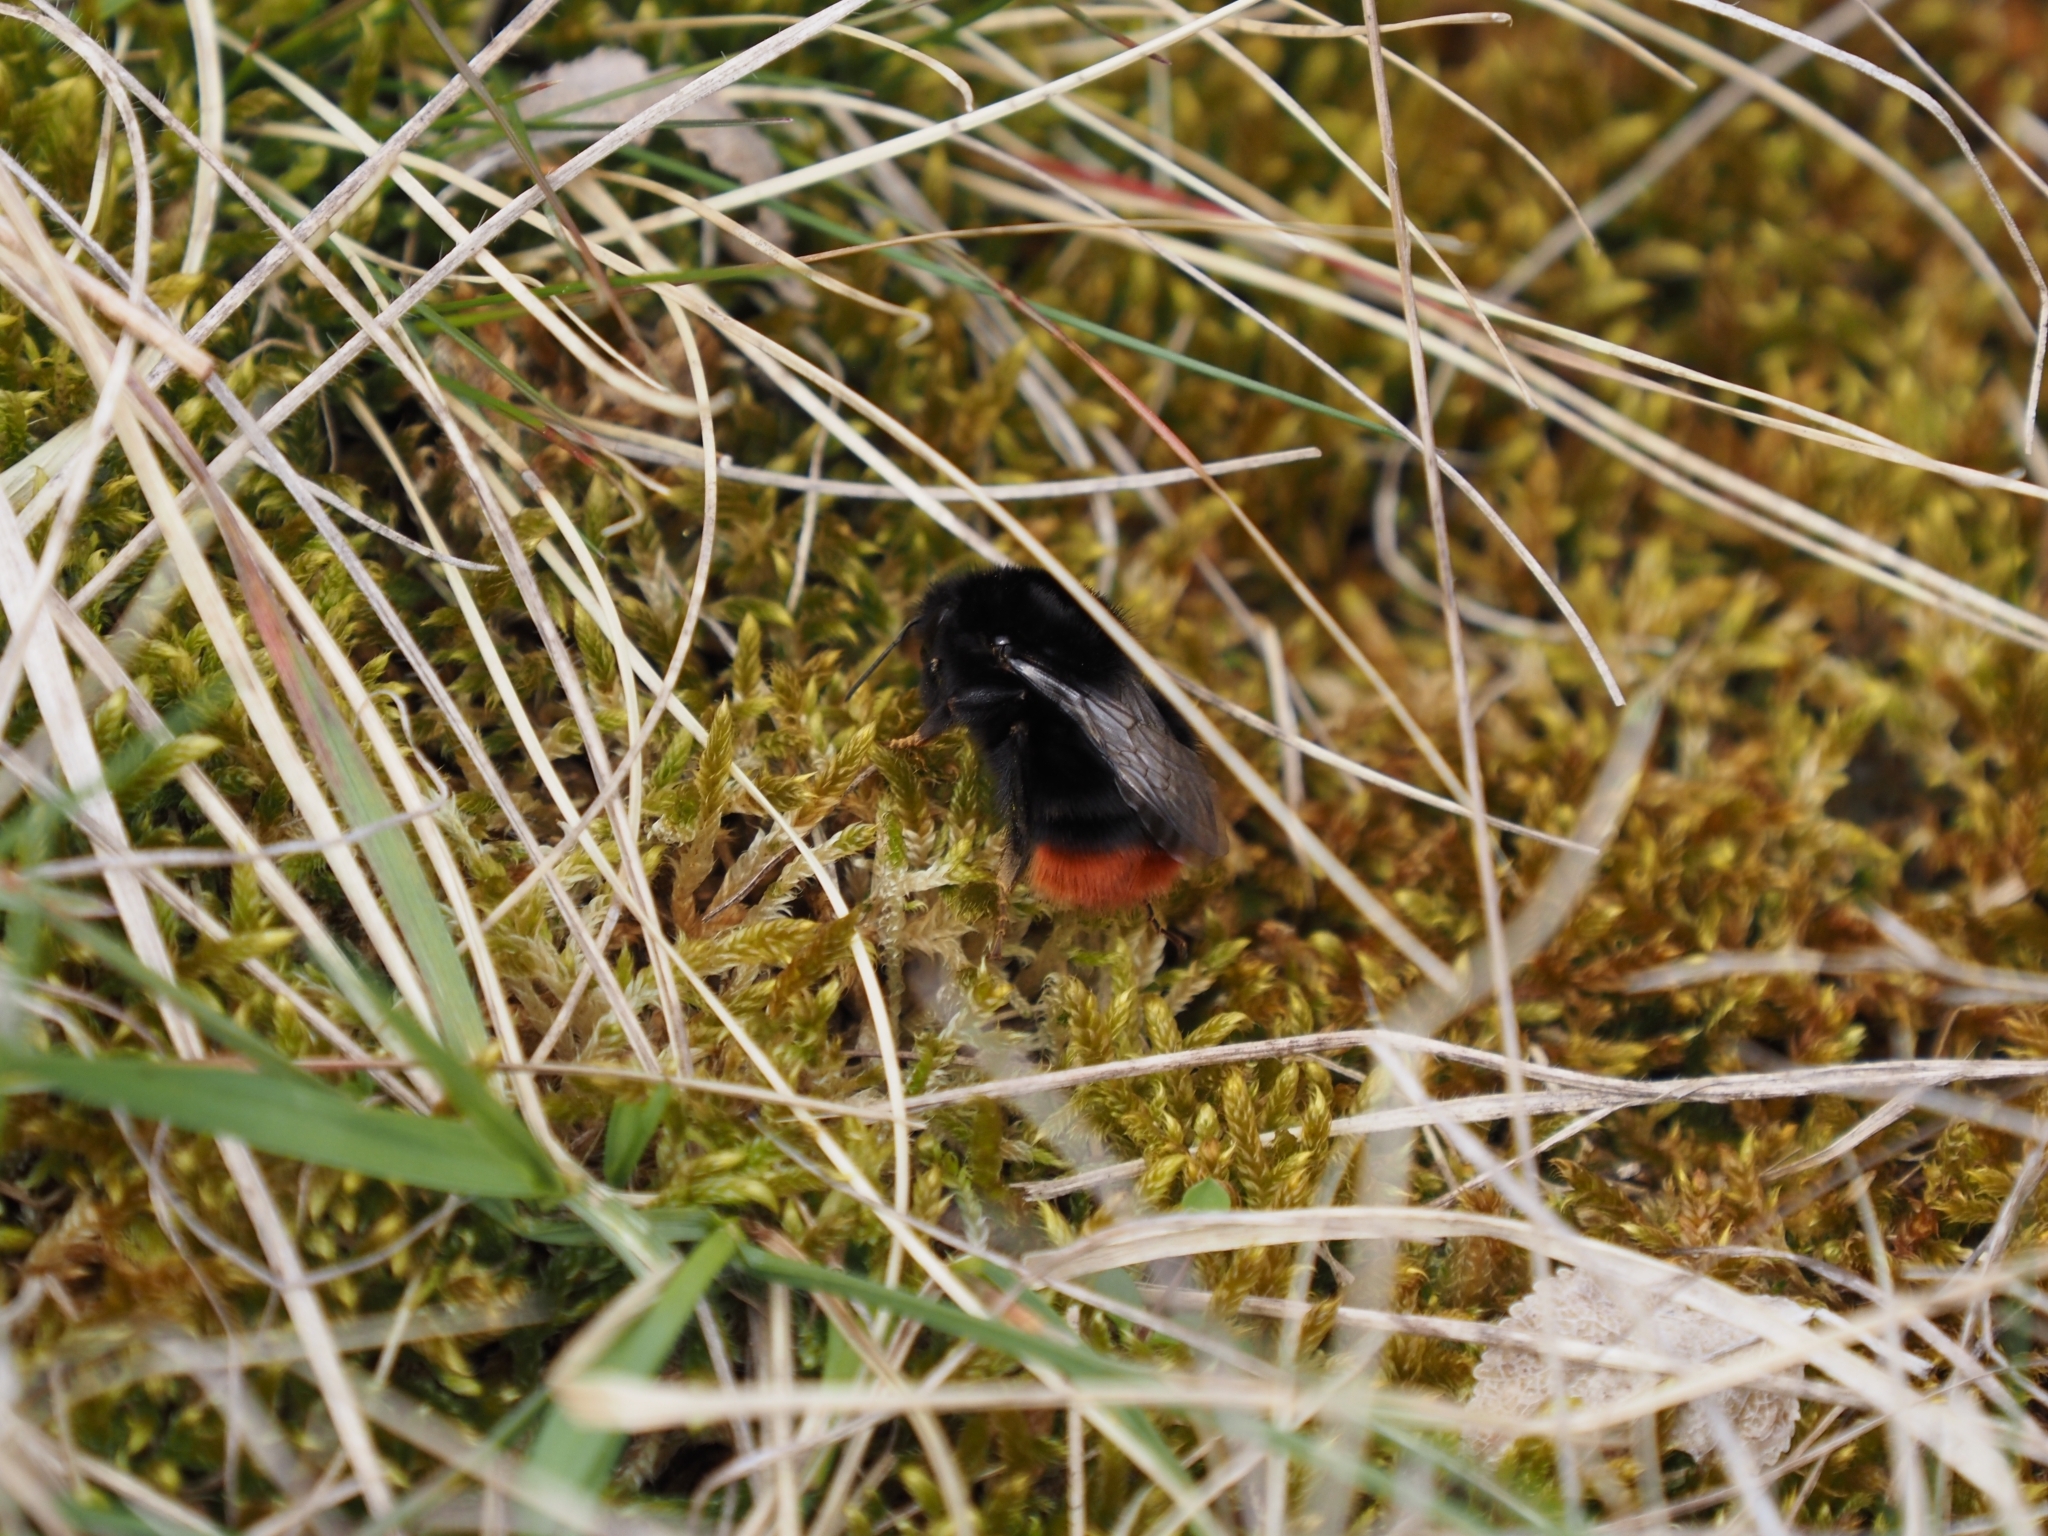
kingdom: Animalia
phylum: Arthropoda
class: Insecta
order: Hymenoptera
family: Apidae
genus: Bombus
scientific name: Bombus lapidarius
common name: Large red-tailed humble-bee
